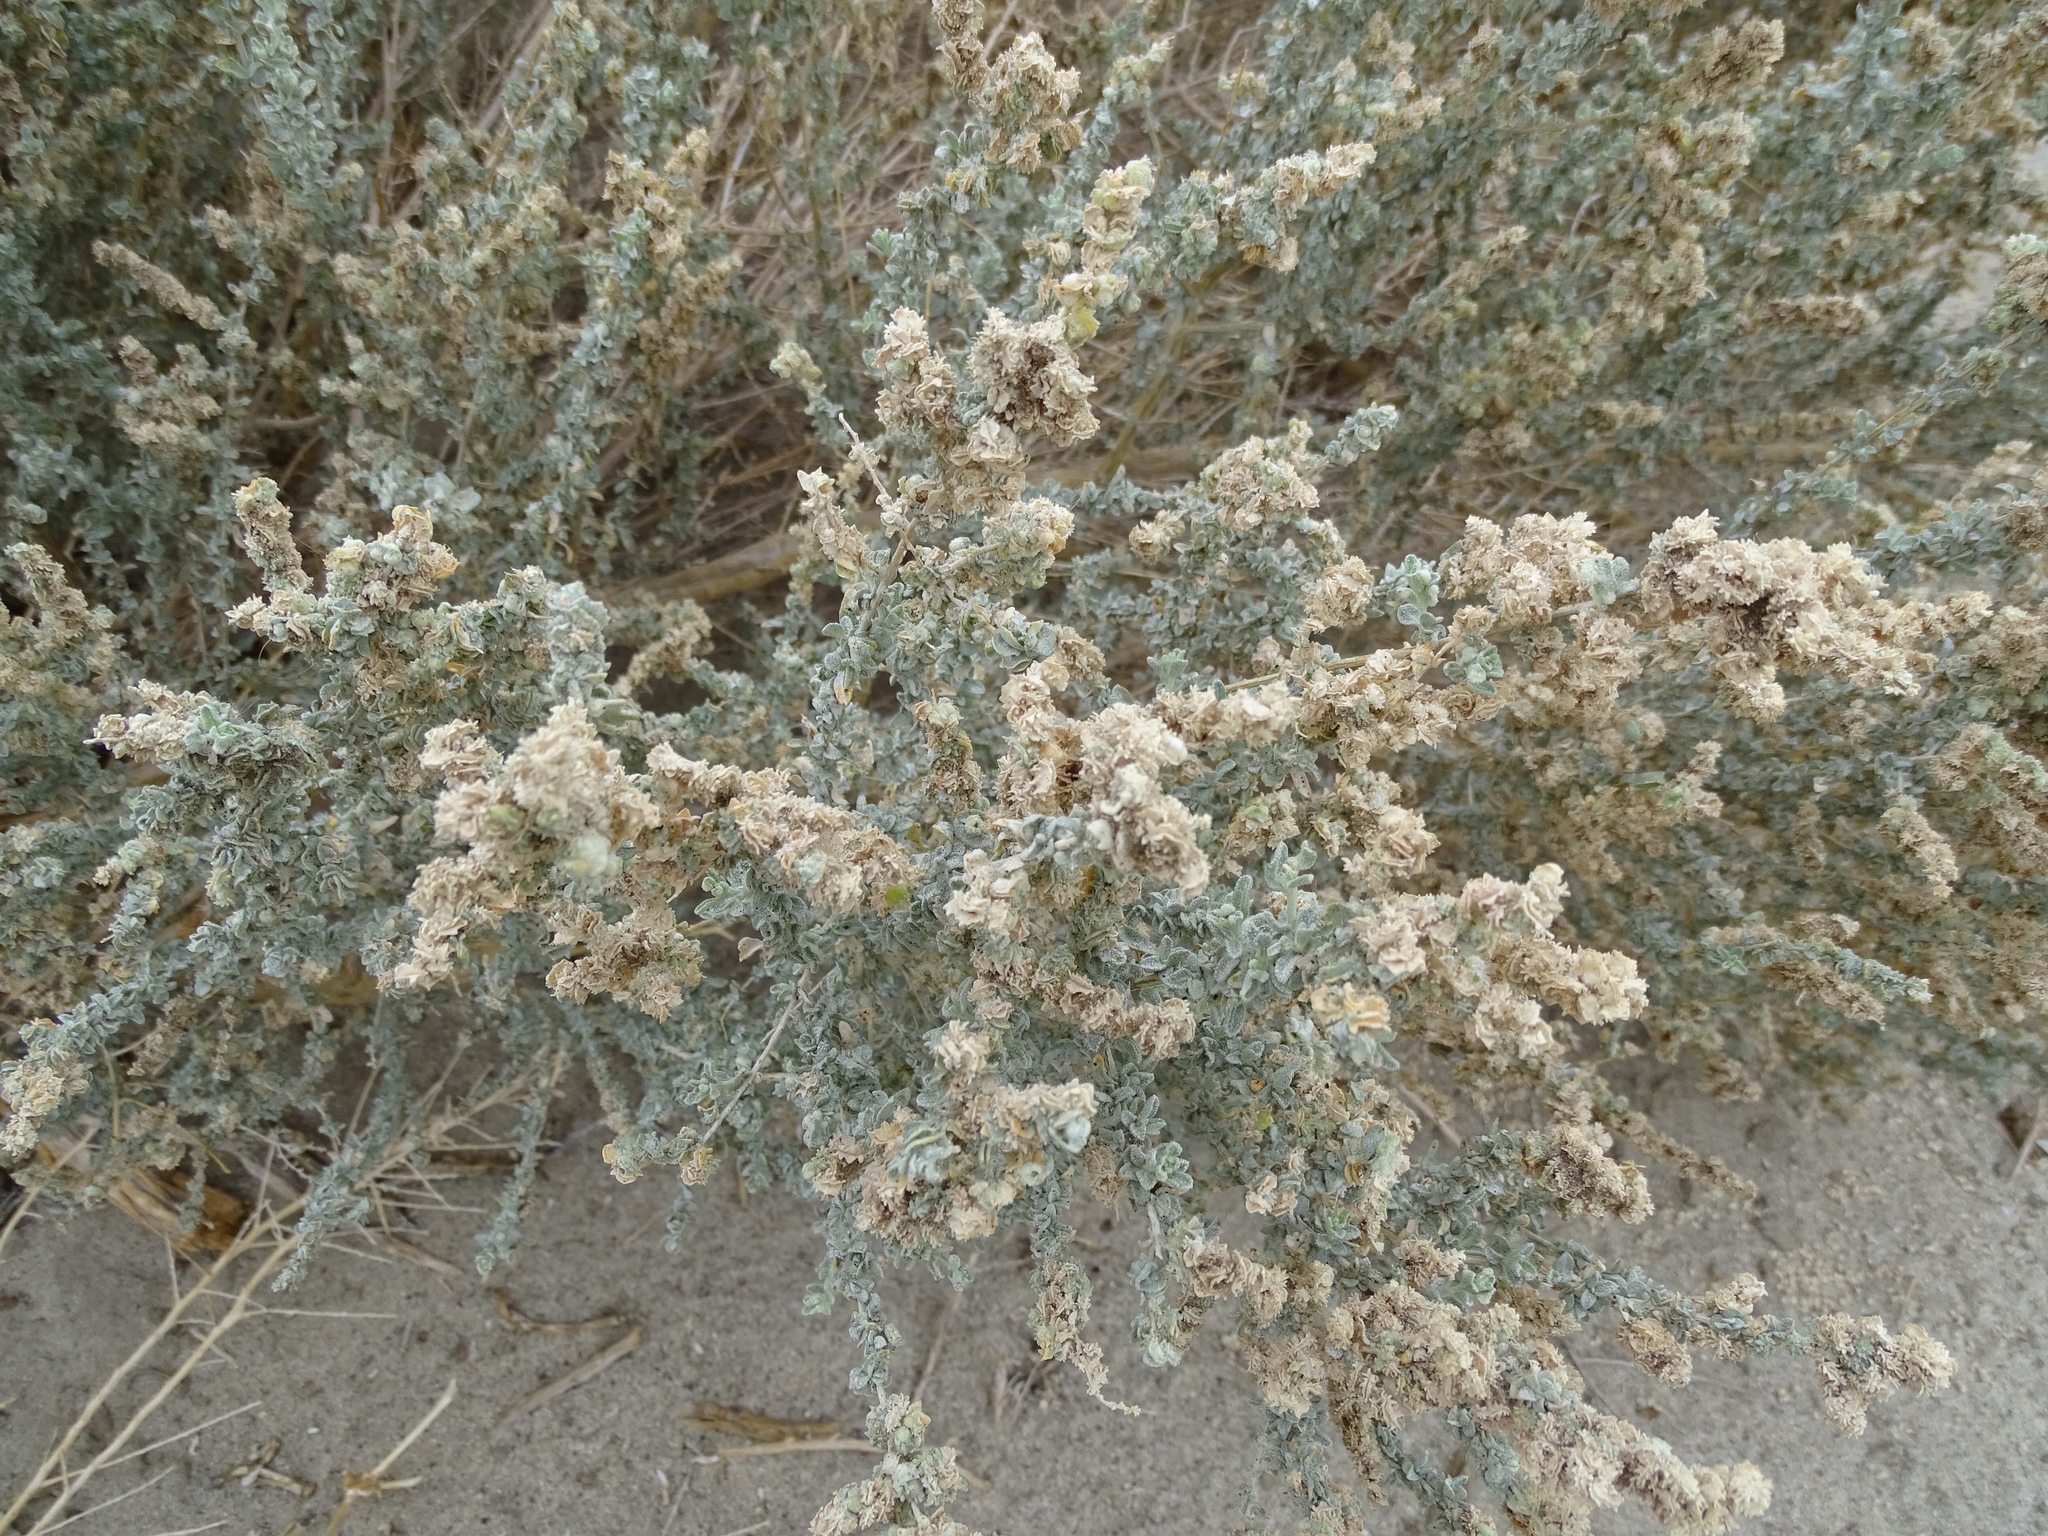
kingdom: Plantae
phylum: Tracheophyta
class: Magnoliopsida
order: Caryophyllales
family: Amaranthaceae
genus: Atriplex
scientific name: Atriplex polycarpa
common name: Desert saltbush
